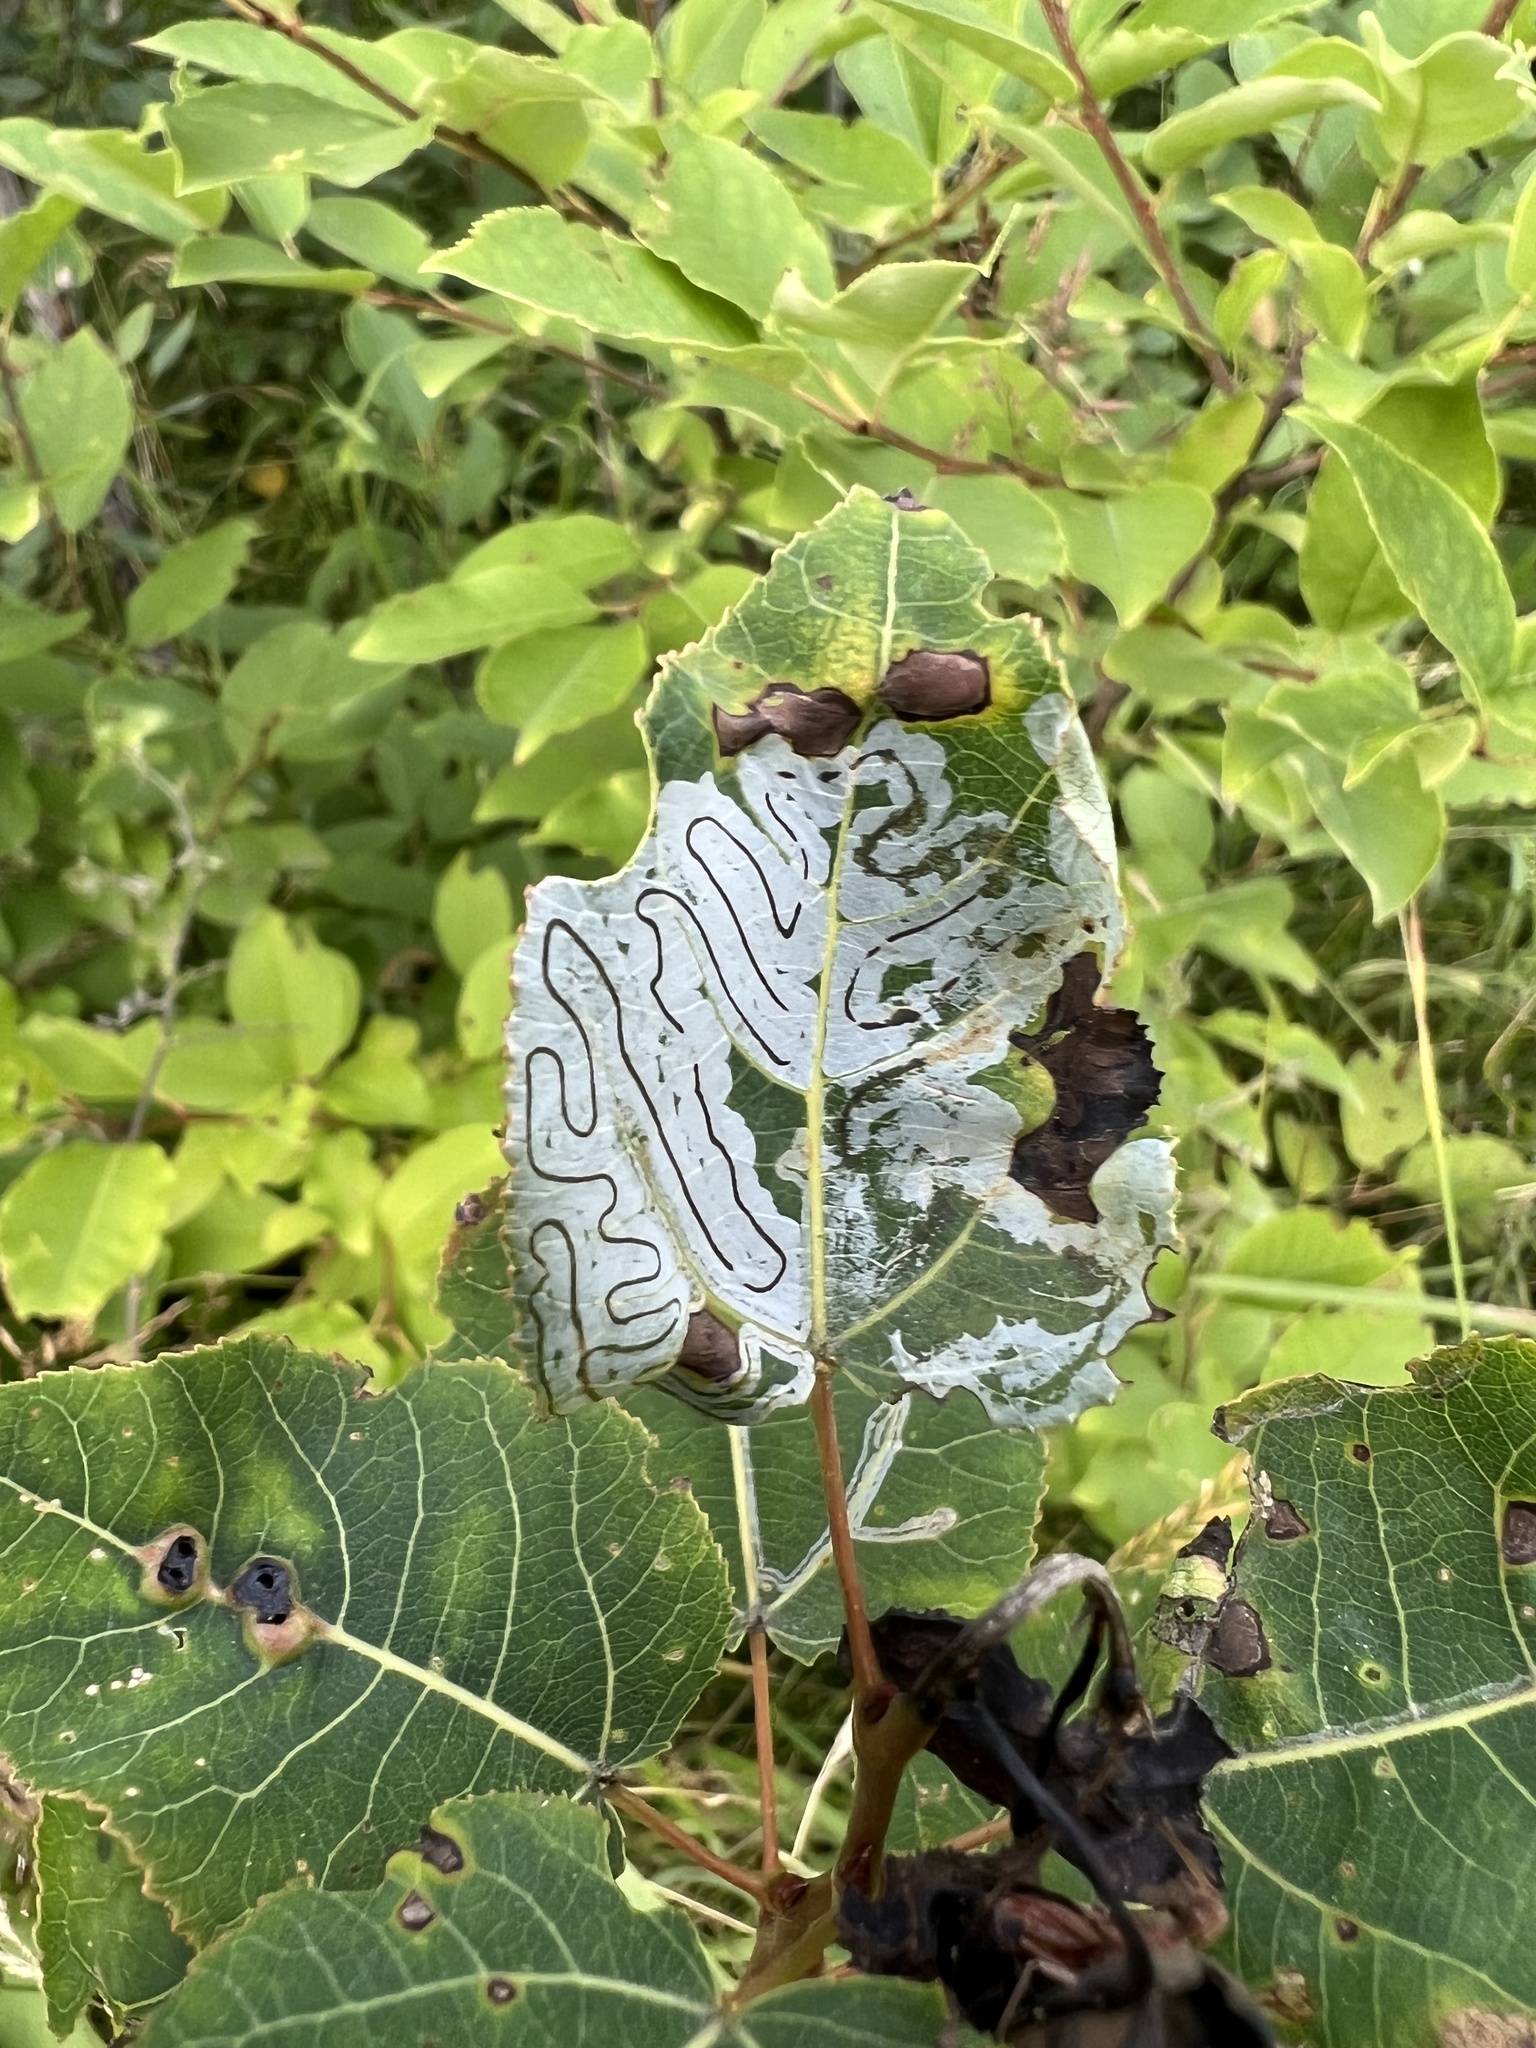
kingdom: Animalia
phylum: Arthropoda
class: Insecta
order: Lepidoptera
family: Gracillariidae
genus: Phyllocnistis
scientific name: Phyllocnistis populiella
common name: Aspen serpentine leafminer moth
